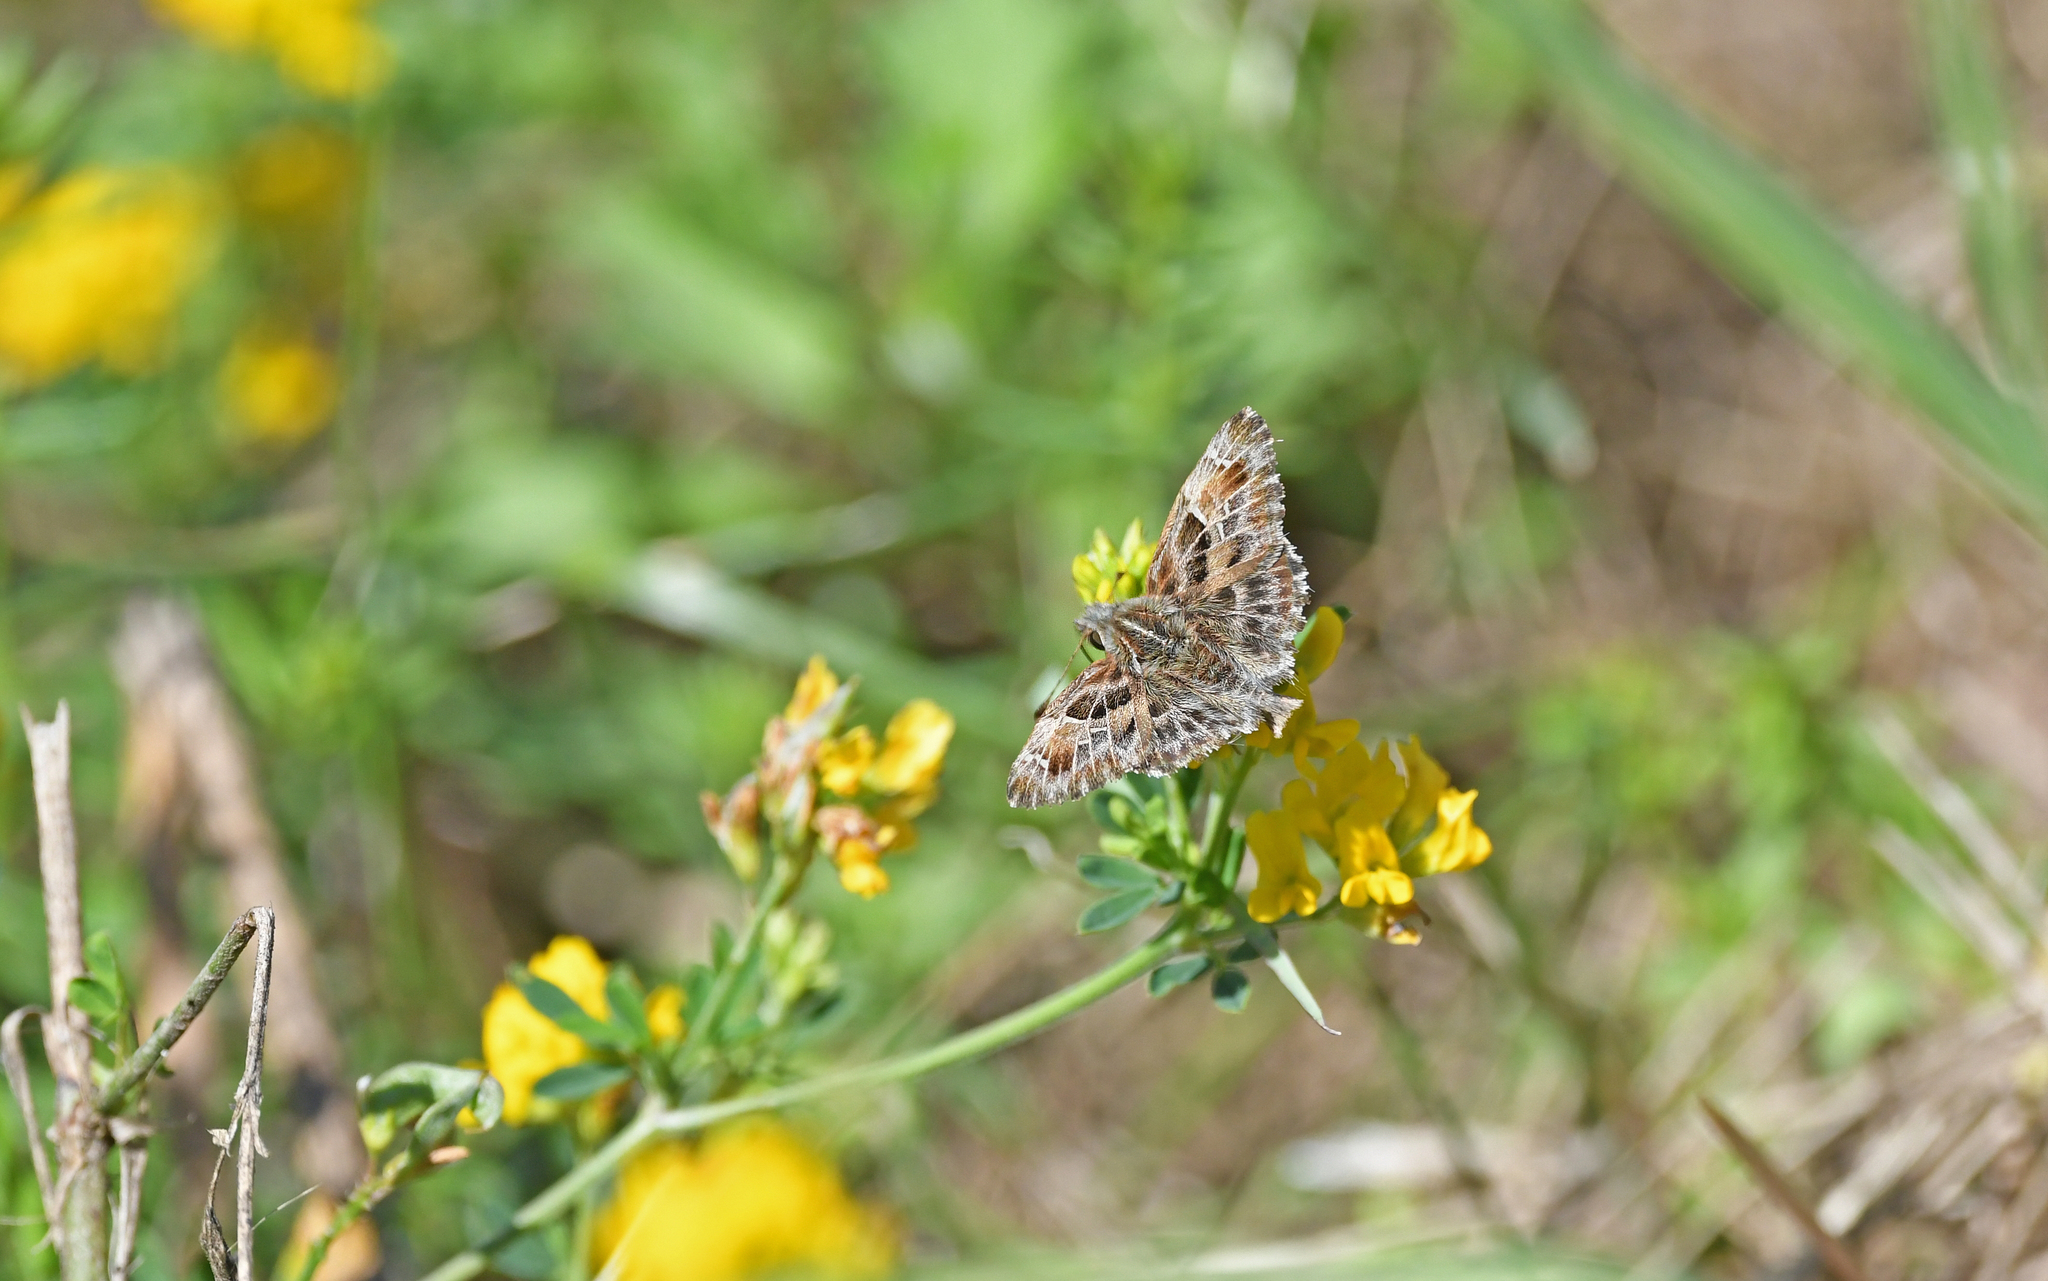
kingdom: Animalia
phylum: Arthropoda
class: Insecta
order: Lepidoptera
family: Hesperiidae
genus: Carcharodus
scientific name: Carcharodus alceae
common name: Mallow skipper
